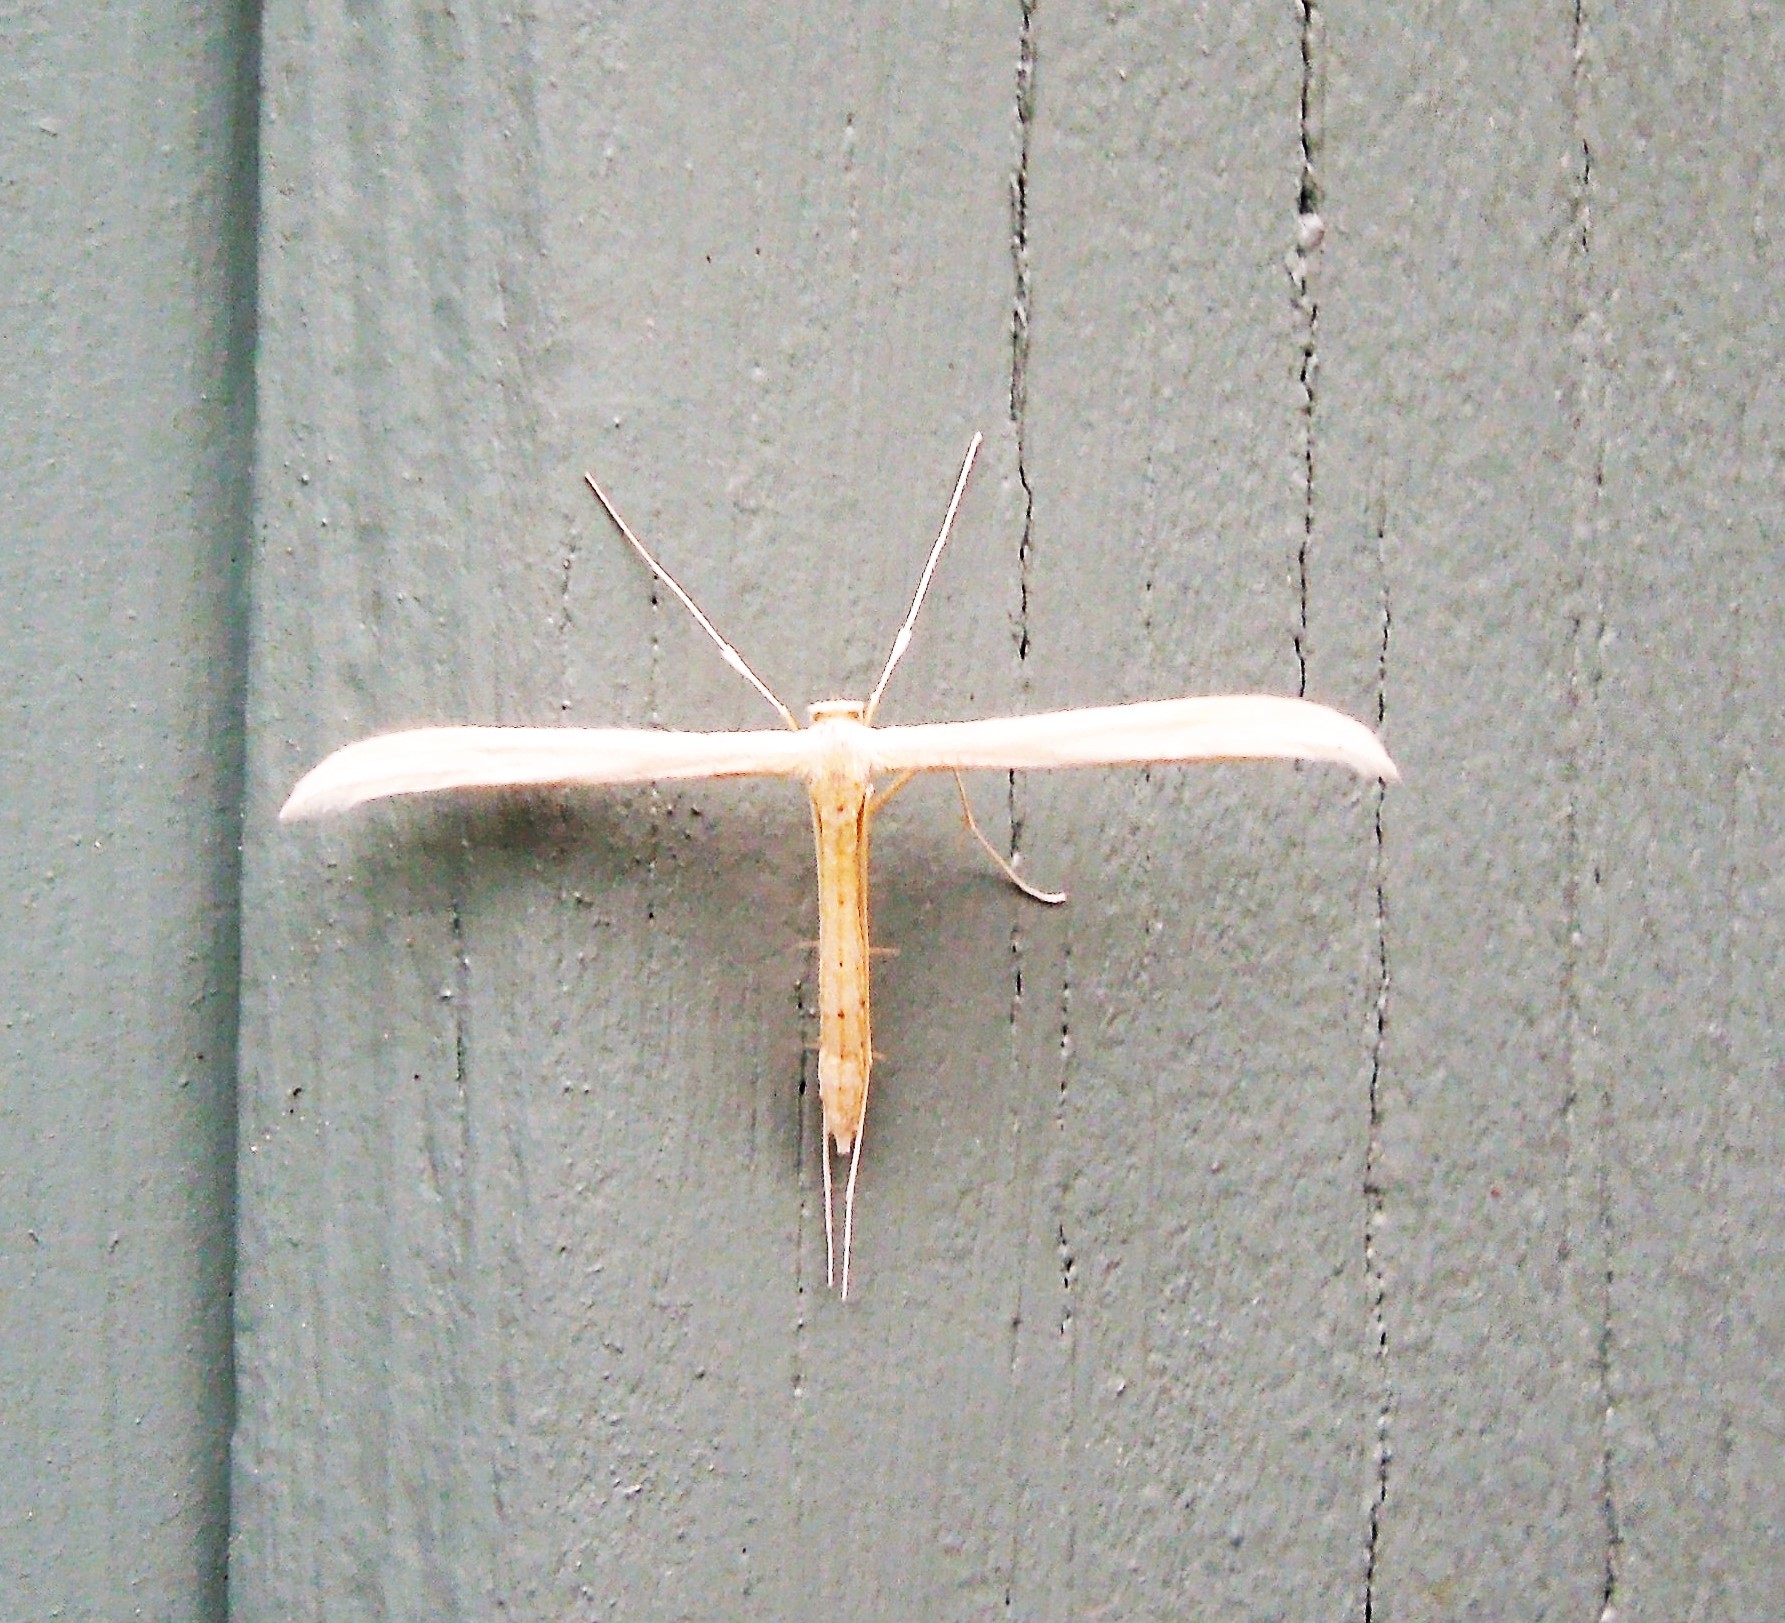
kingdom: Animalia
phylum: Arthropoda
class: Insecta
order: Lepidoptera
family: Pterophoridae
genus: Hellinsia
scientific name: Hellinsia
